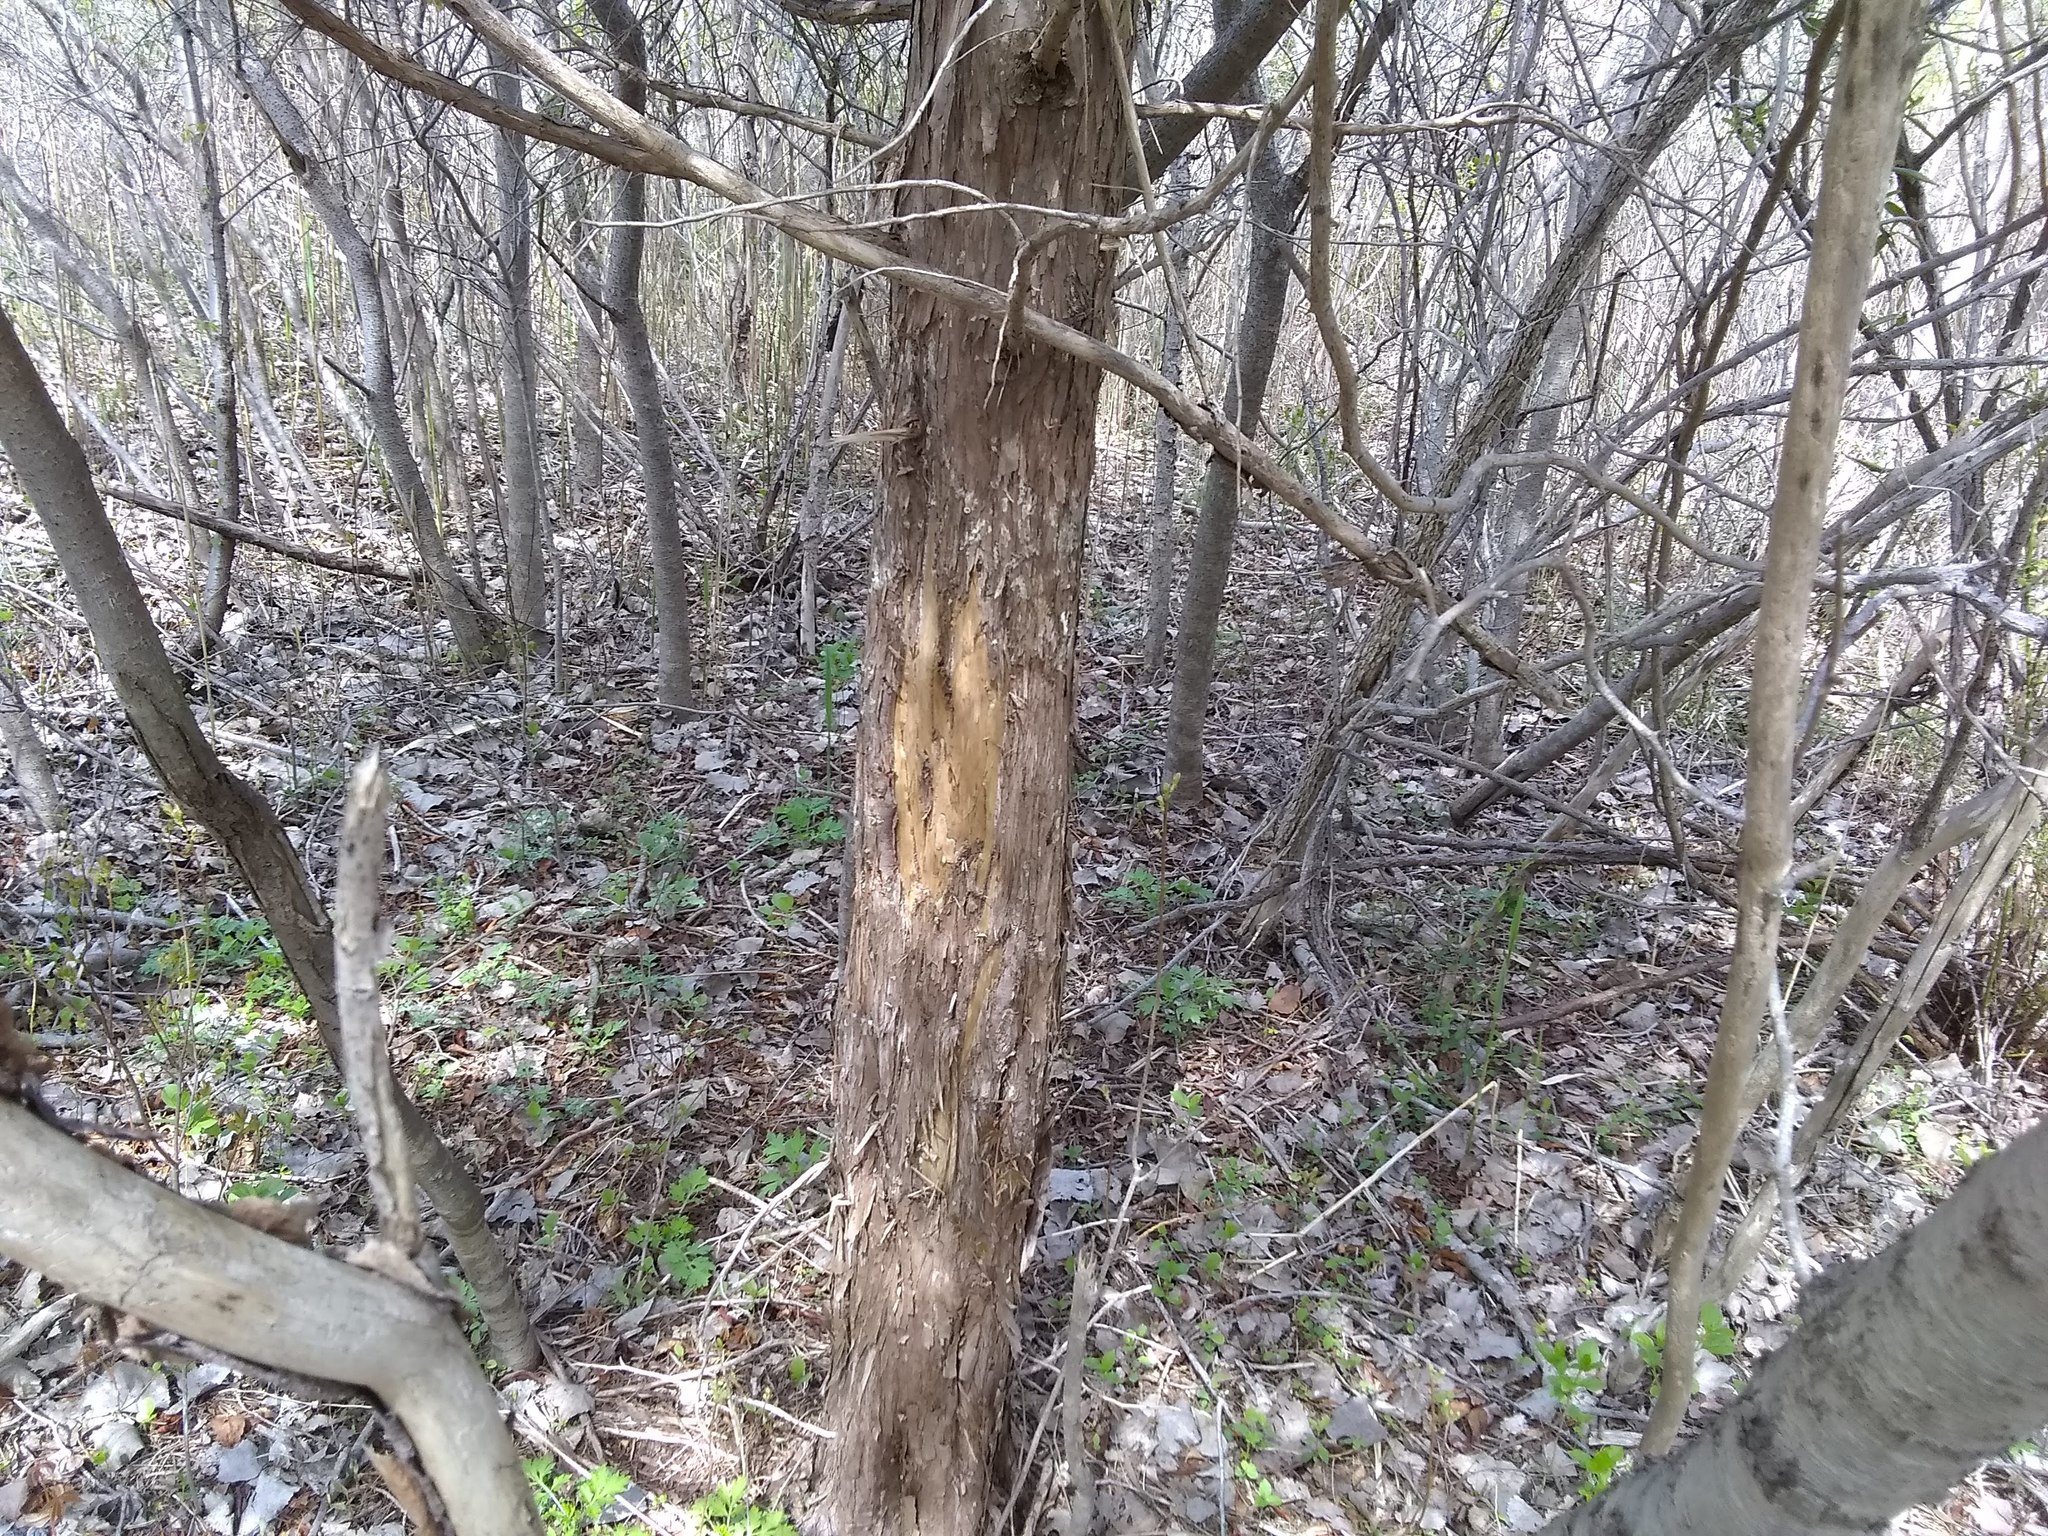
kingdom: Plantae
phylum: Tracheophyta
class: Pinopsida
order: Pinales
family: Cupressaceae
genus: Juniperus
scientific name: Juniperus virginiana
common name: Red juniper
